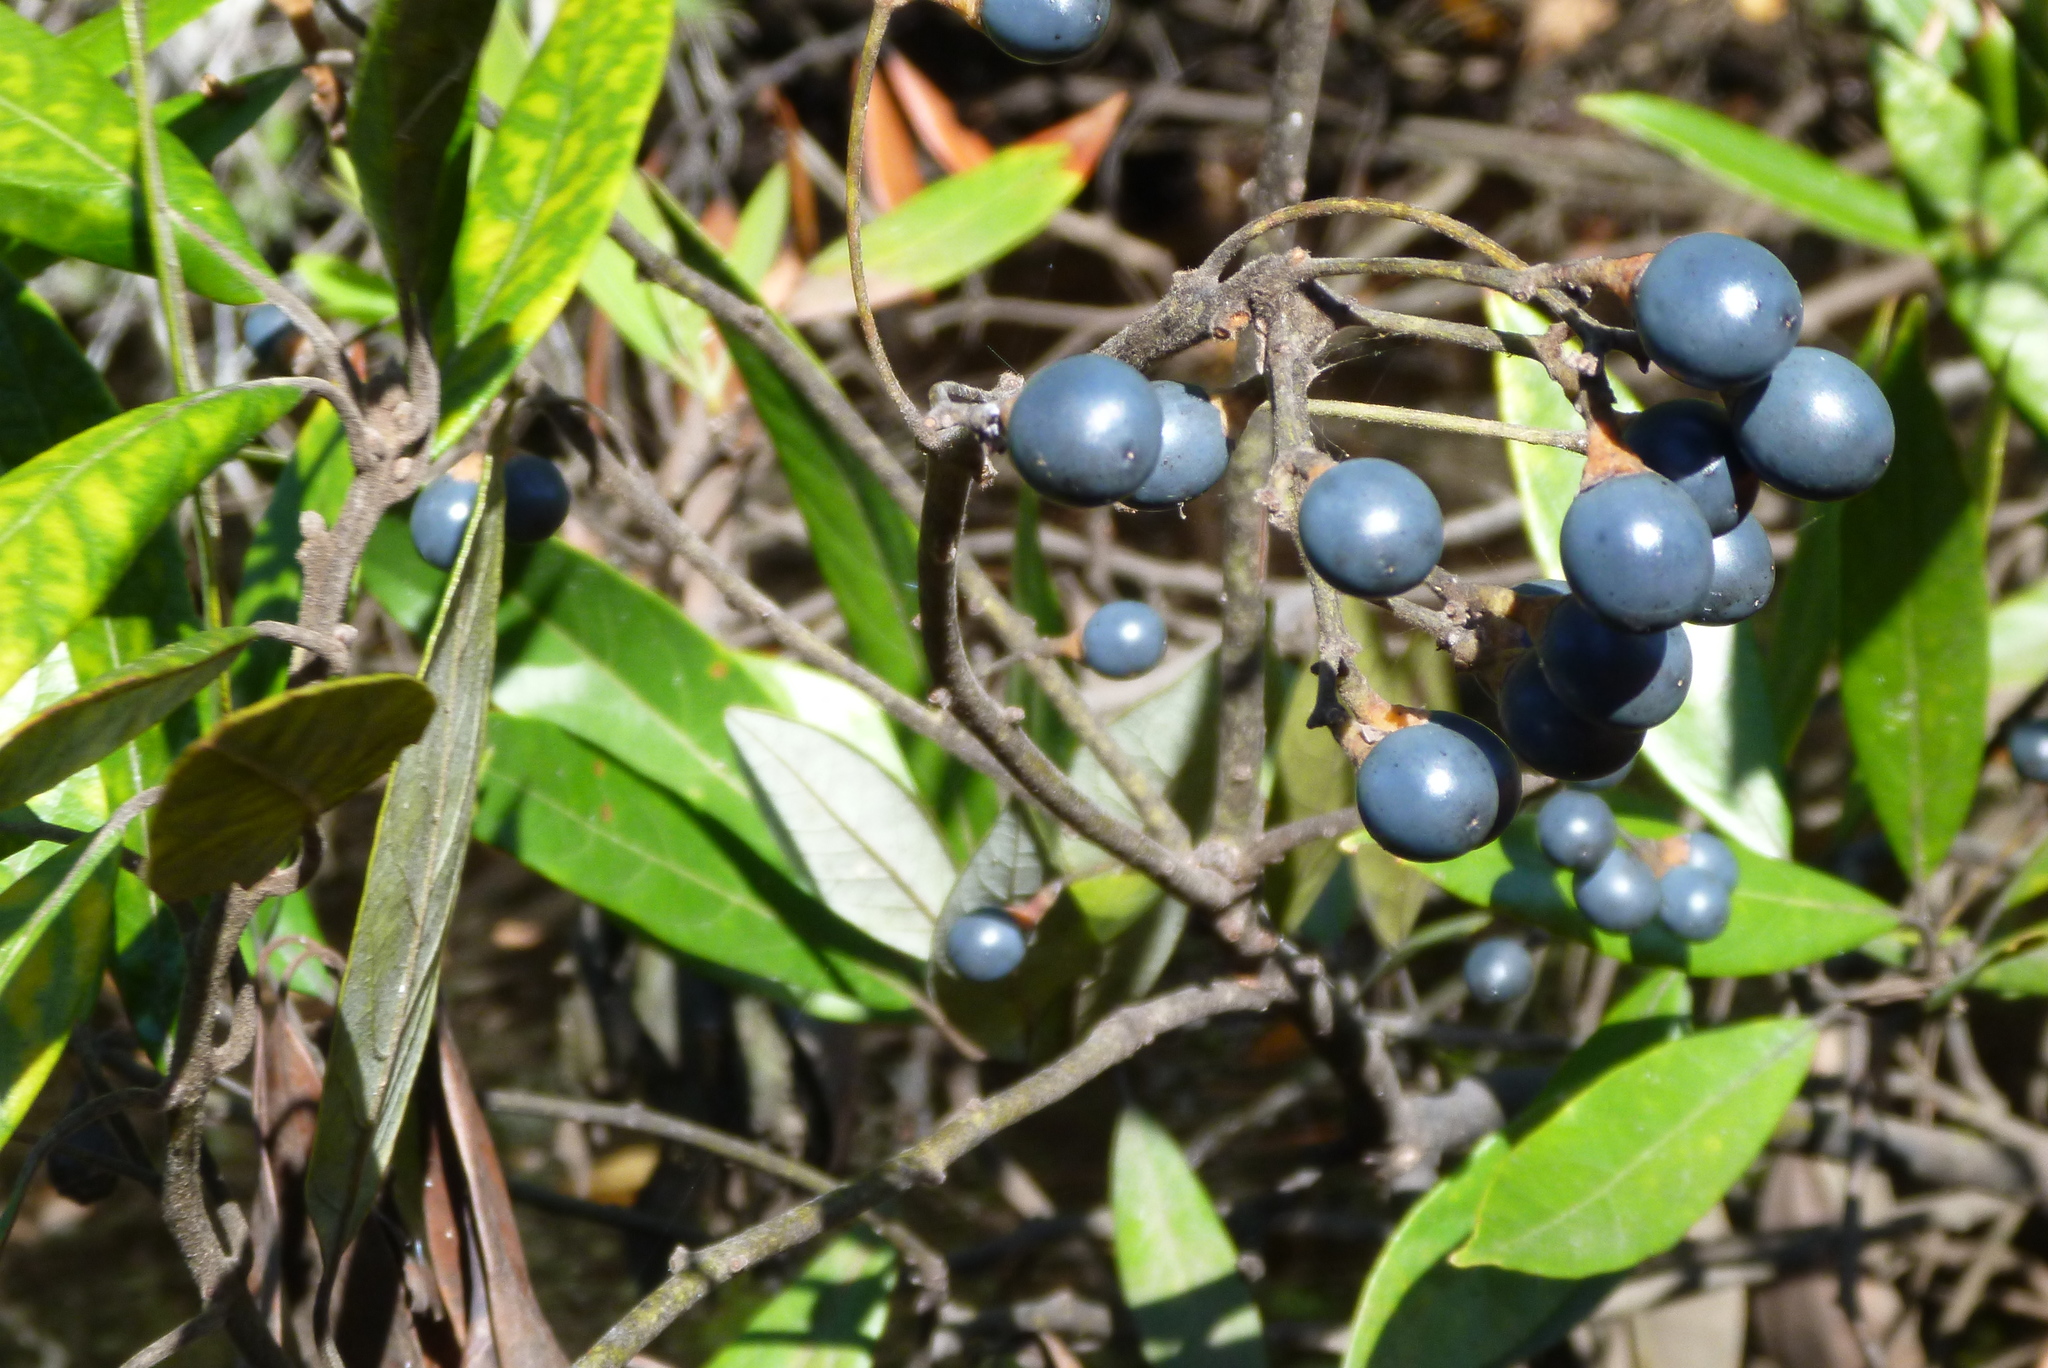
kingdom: Plantae
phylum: Tracheophyta
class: Magnoliopsida
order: Laurales
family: Lauraceae
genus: Persea
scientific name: Persea palustris
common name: Swampbay
